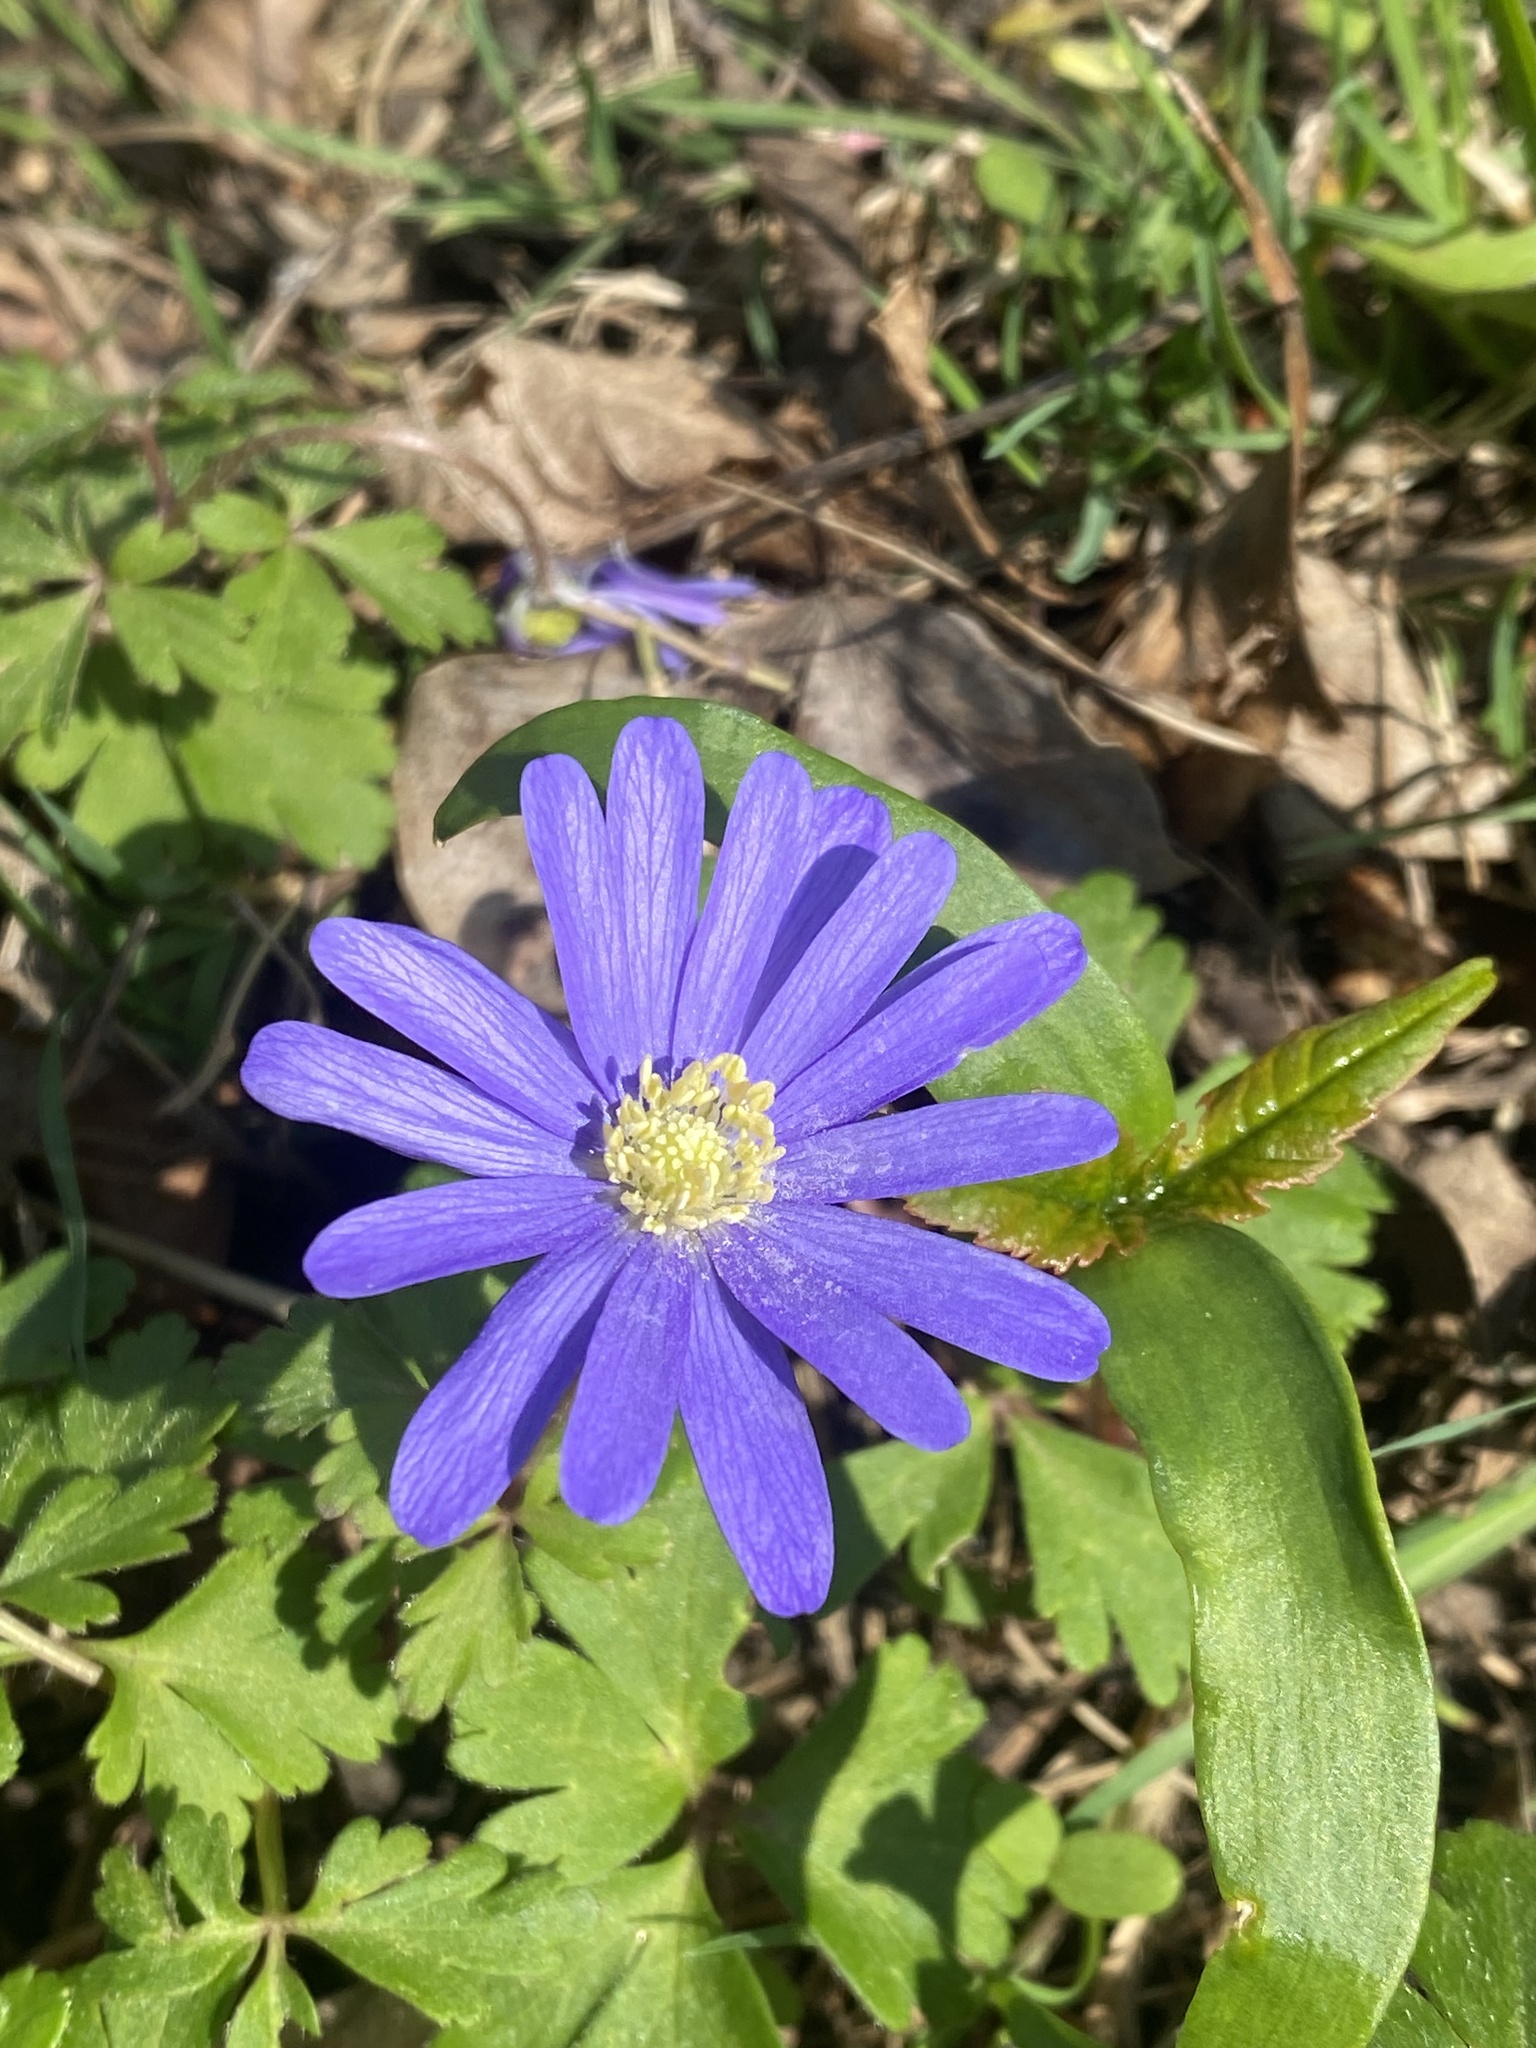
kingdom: Plantae
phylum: Tracheophyta
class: Magnoliopsida
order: Ranunculales
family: Ranunculaceae
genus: Anemone
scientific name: Anemone blanda
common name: Balkan anemone
